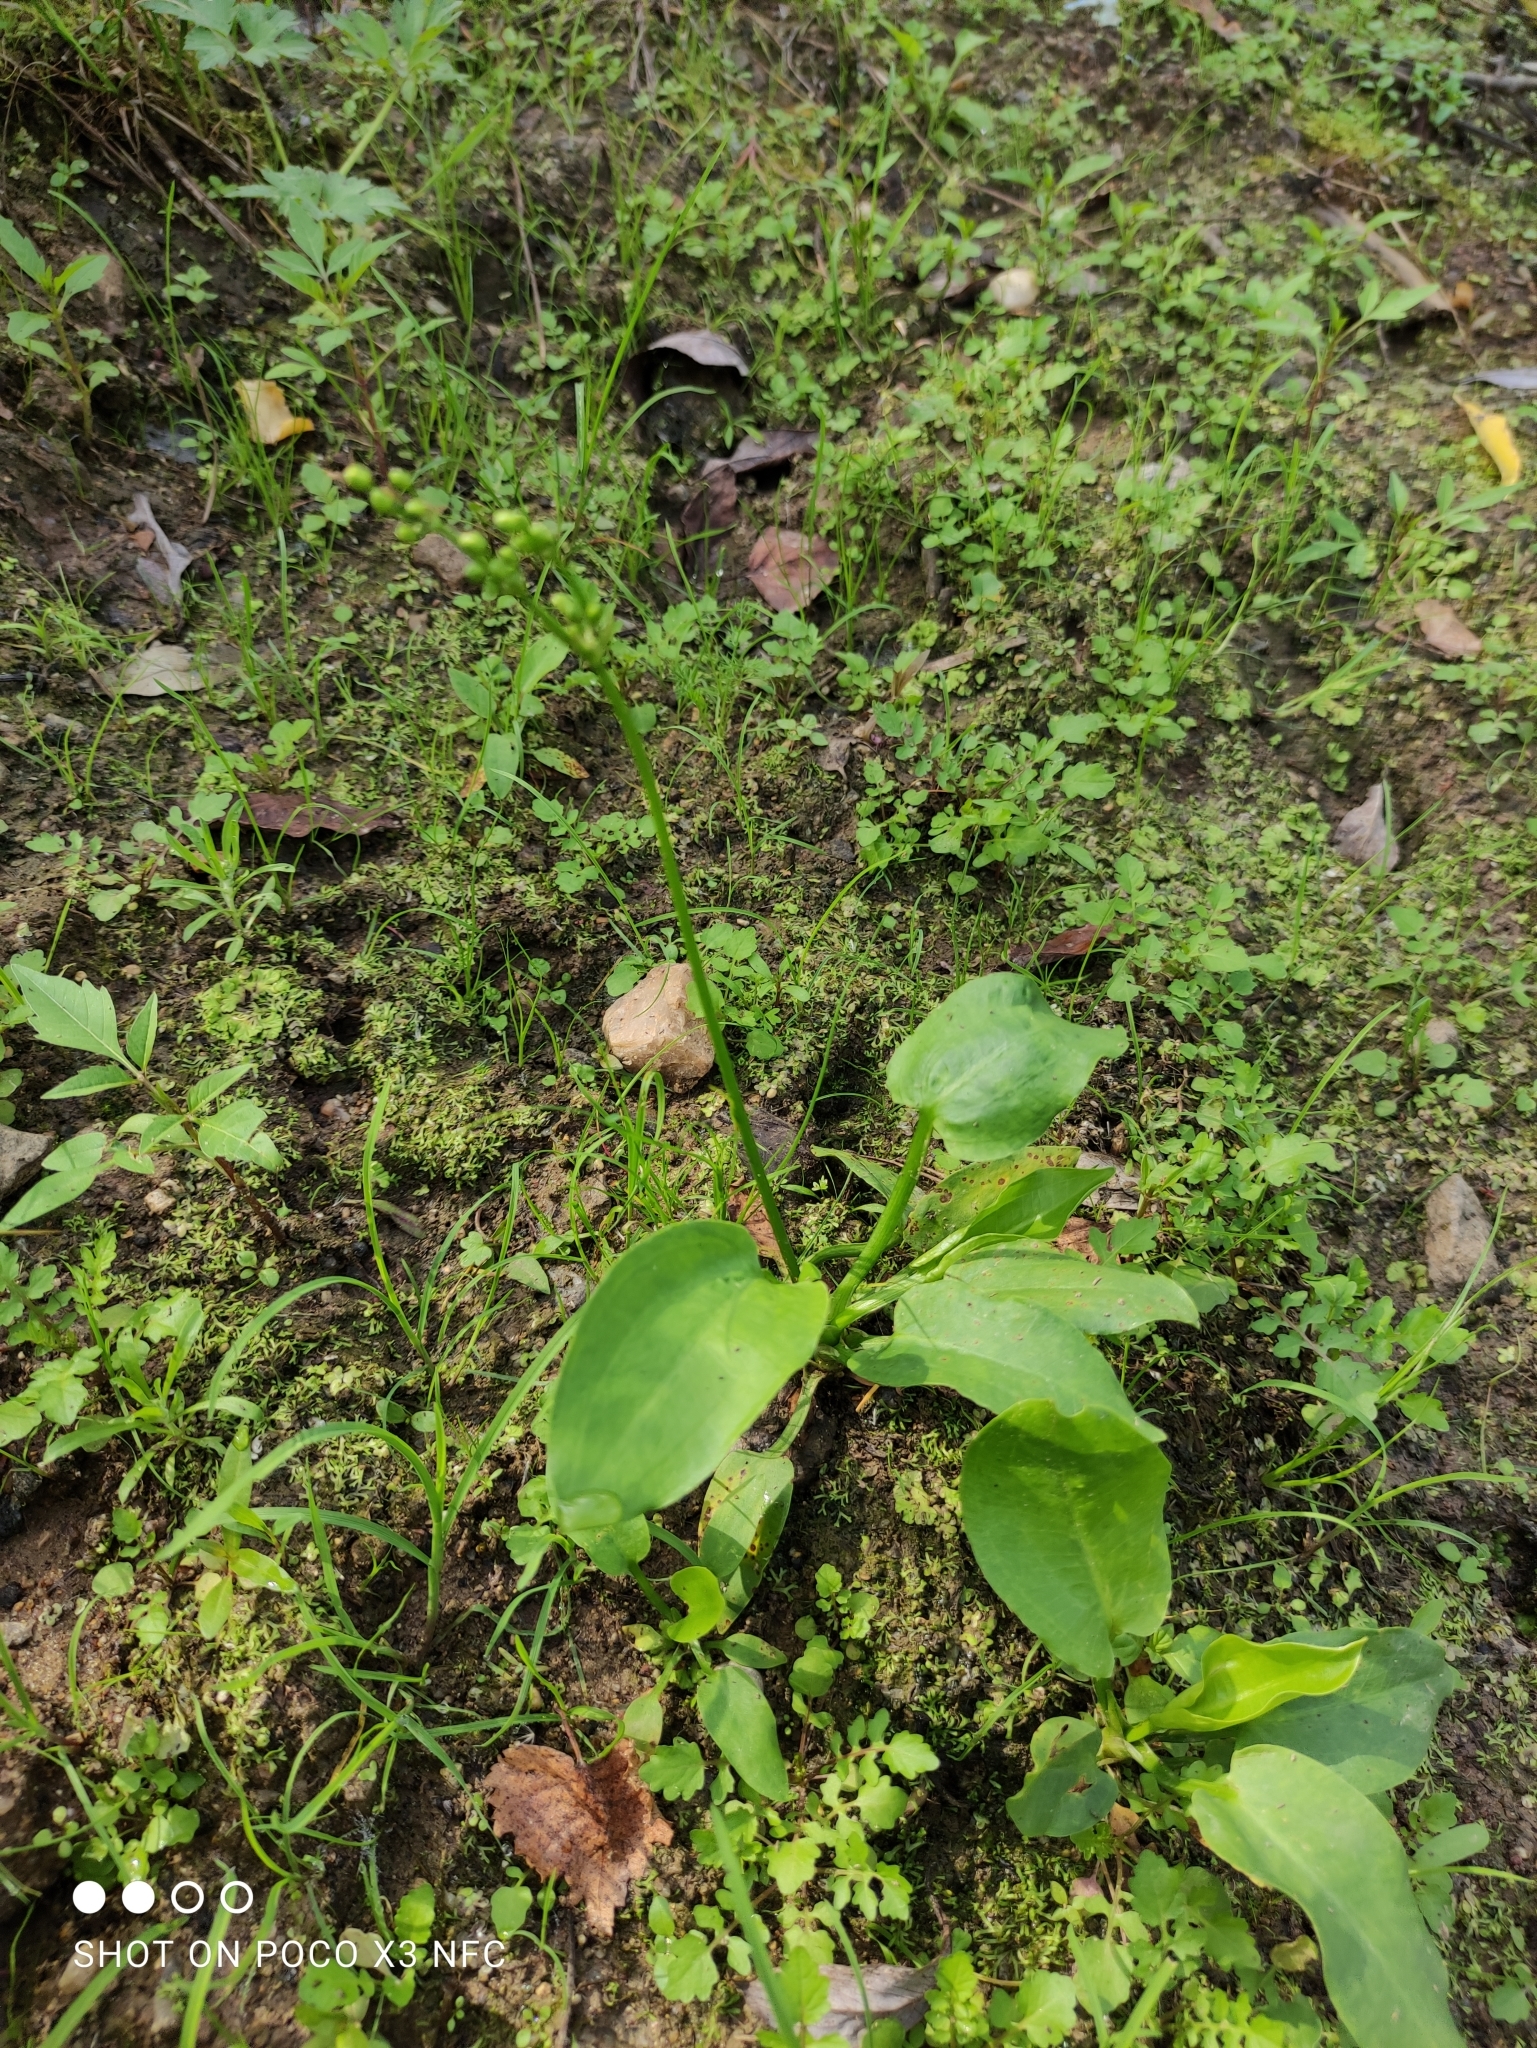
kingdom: Plantae
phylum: Tracheophyta
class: Liliopsida
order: Alismatales
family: Alismataceae
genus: Alisma
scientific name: Alisma plantago-aquatica
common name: Water-plantain
